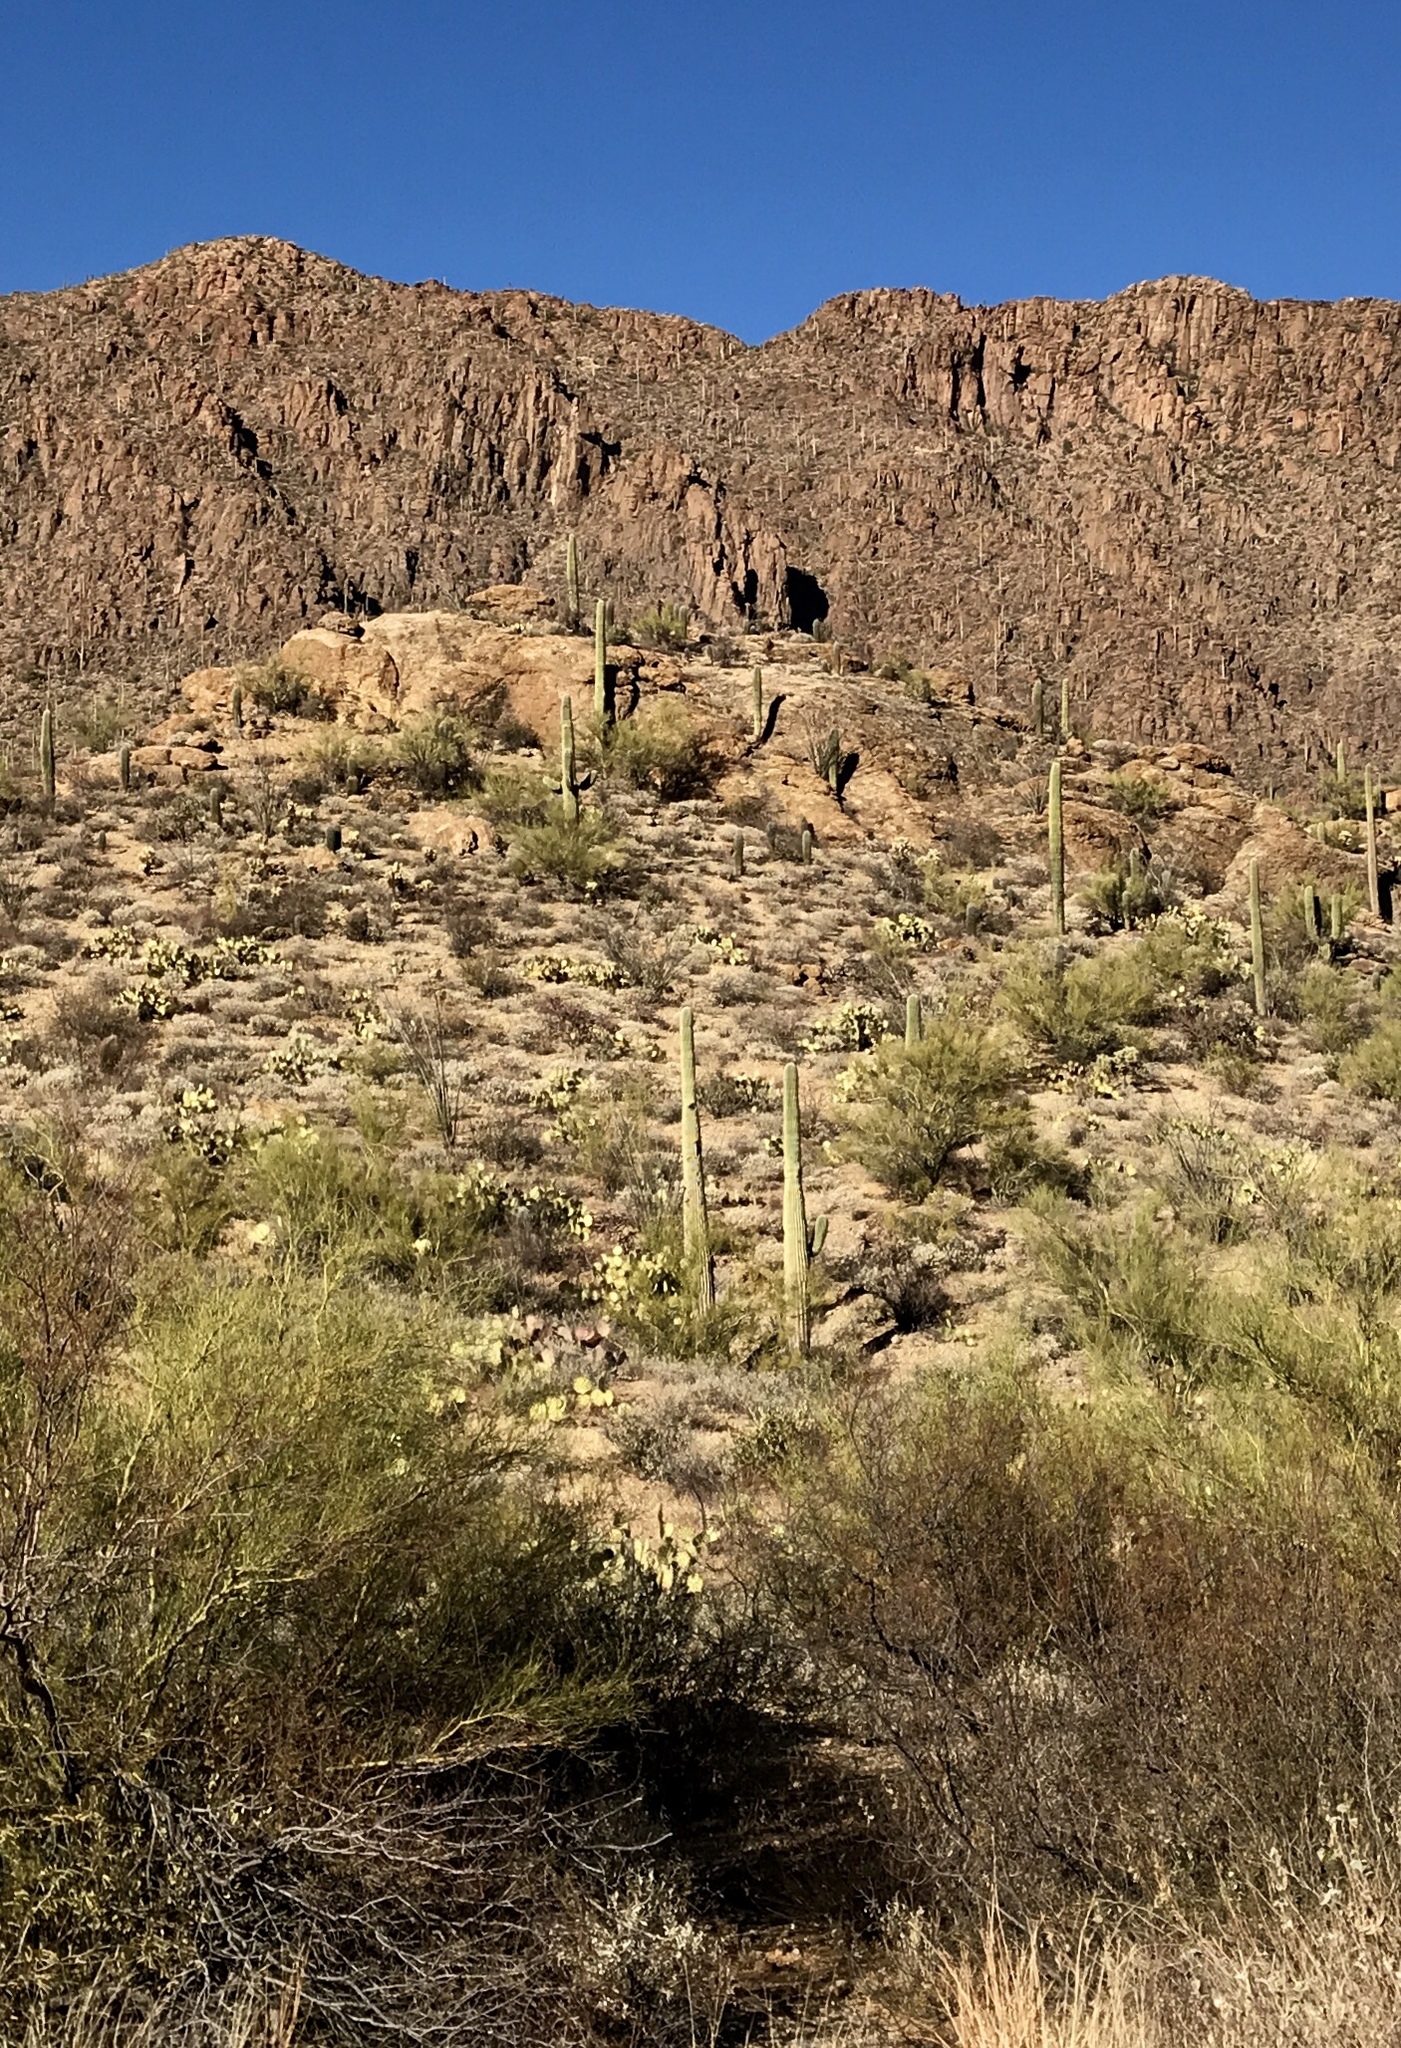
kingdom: Plantae
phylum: Tracheophyta
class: Magnoliopsida
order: Caryophyllales
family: Cactaceae
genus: Carnegiea
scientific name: Carnegiea gigantea
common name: Saguaro
